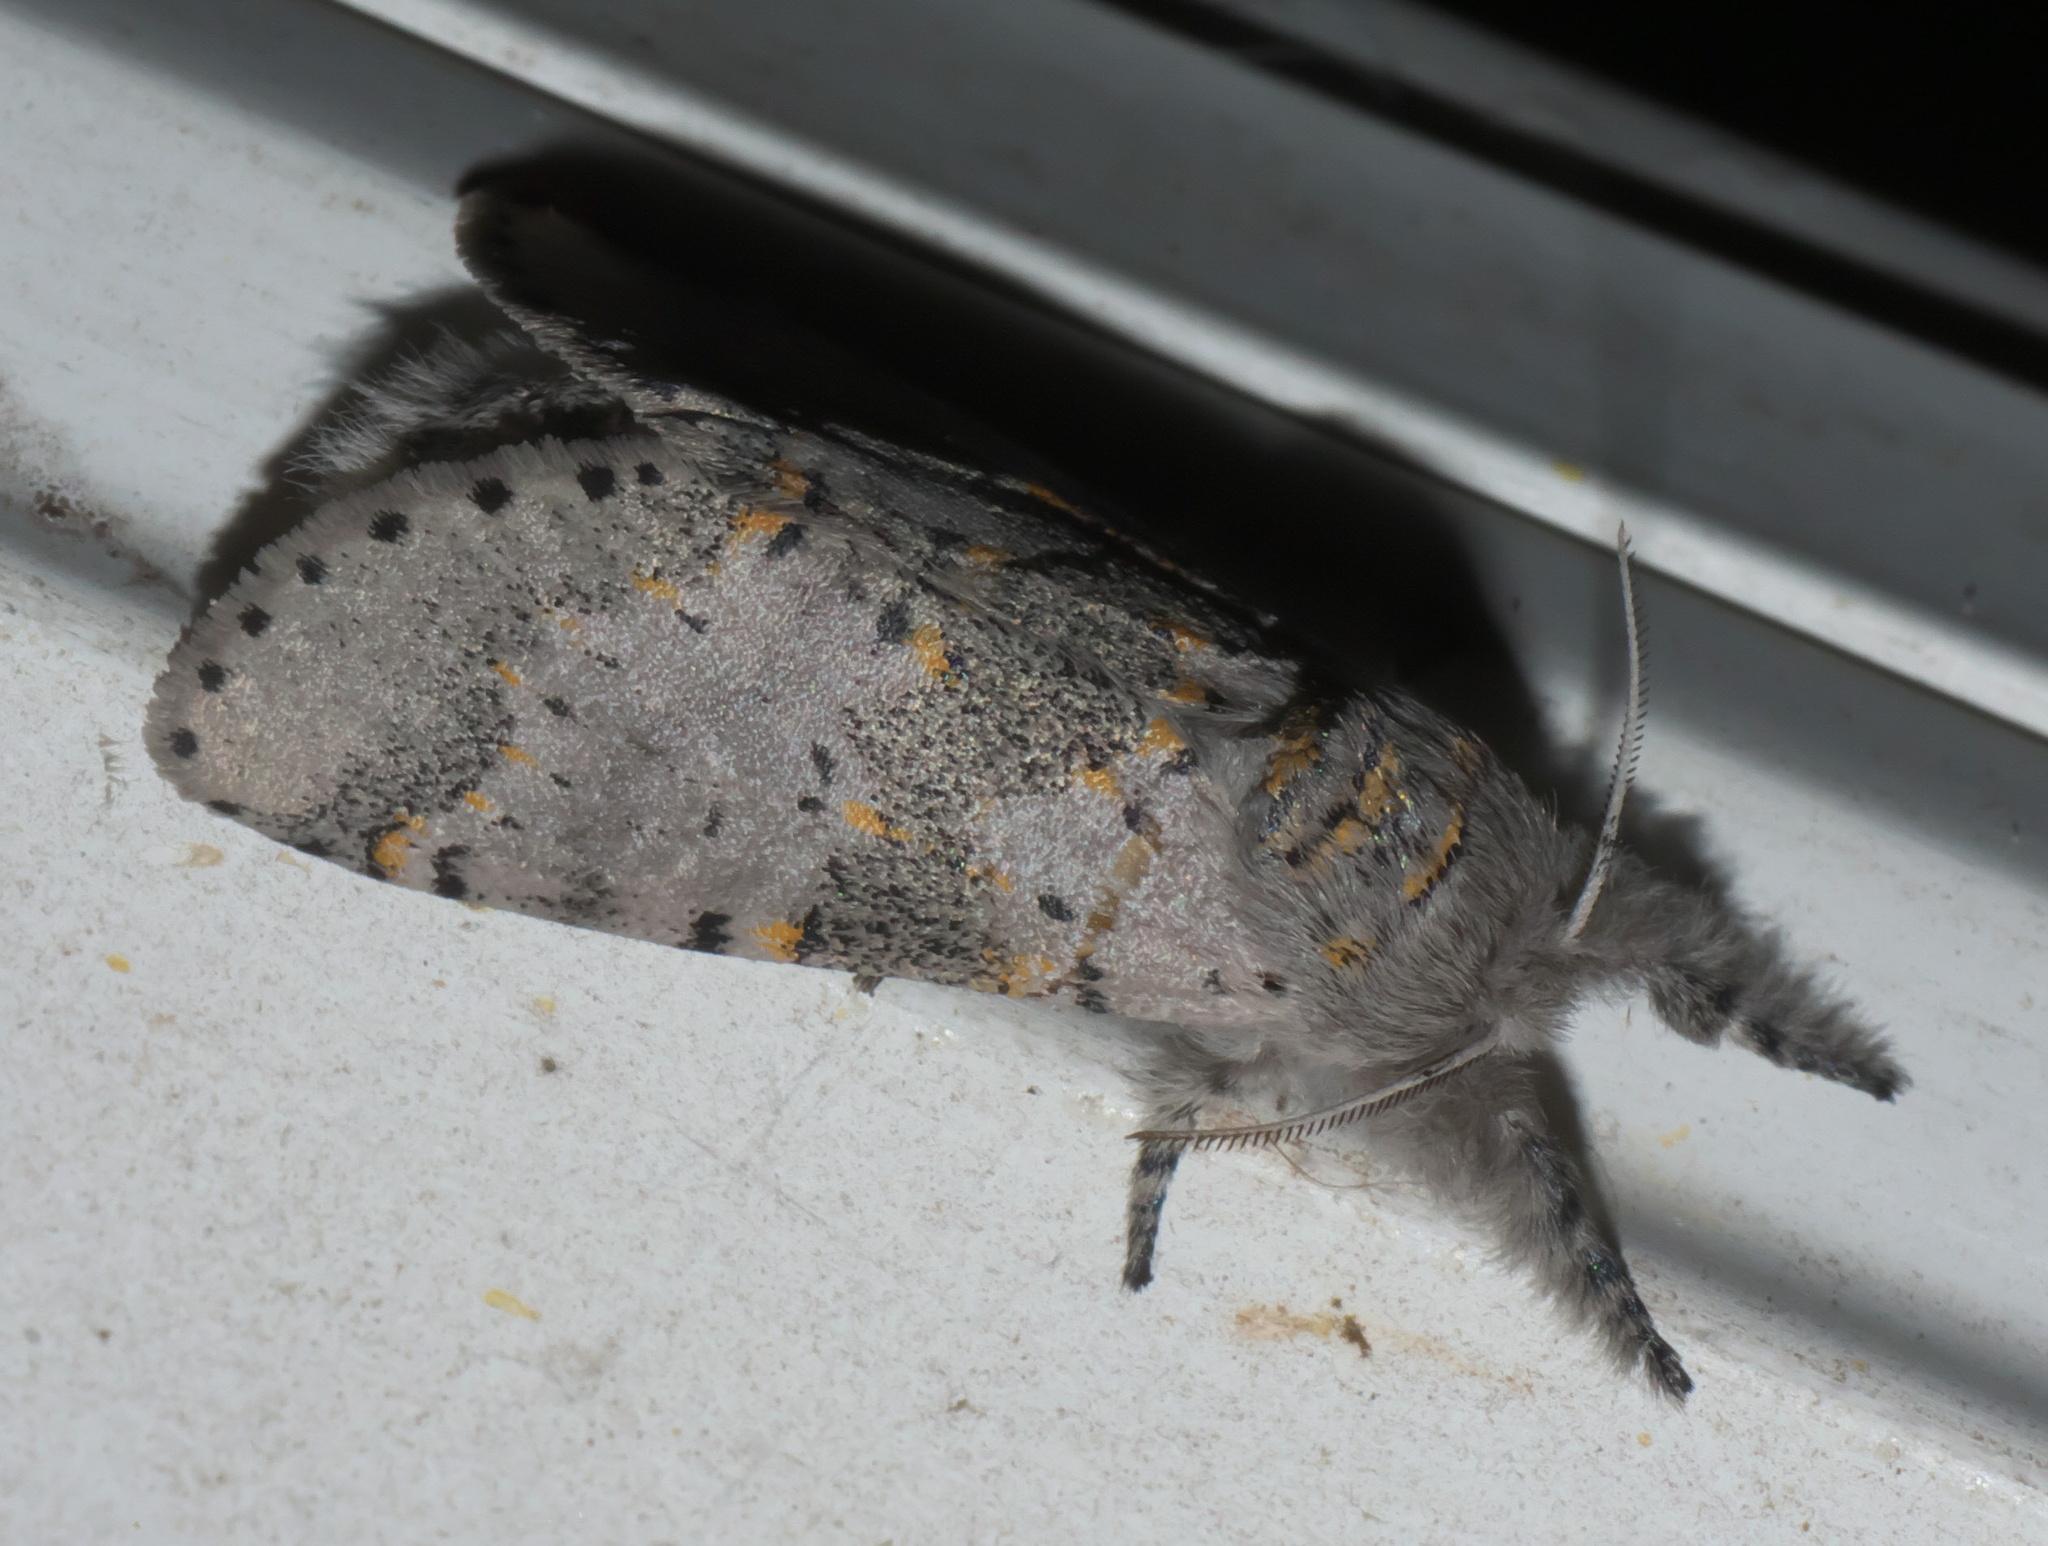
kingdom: Animalia
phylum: Arthropoda
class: Insecta
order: Lepidoptera
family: Notodontidae
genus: Furcula
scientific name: Furcula cinerea
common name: Gray furcula
